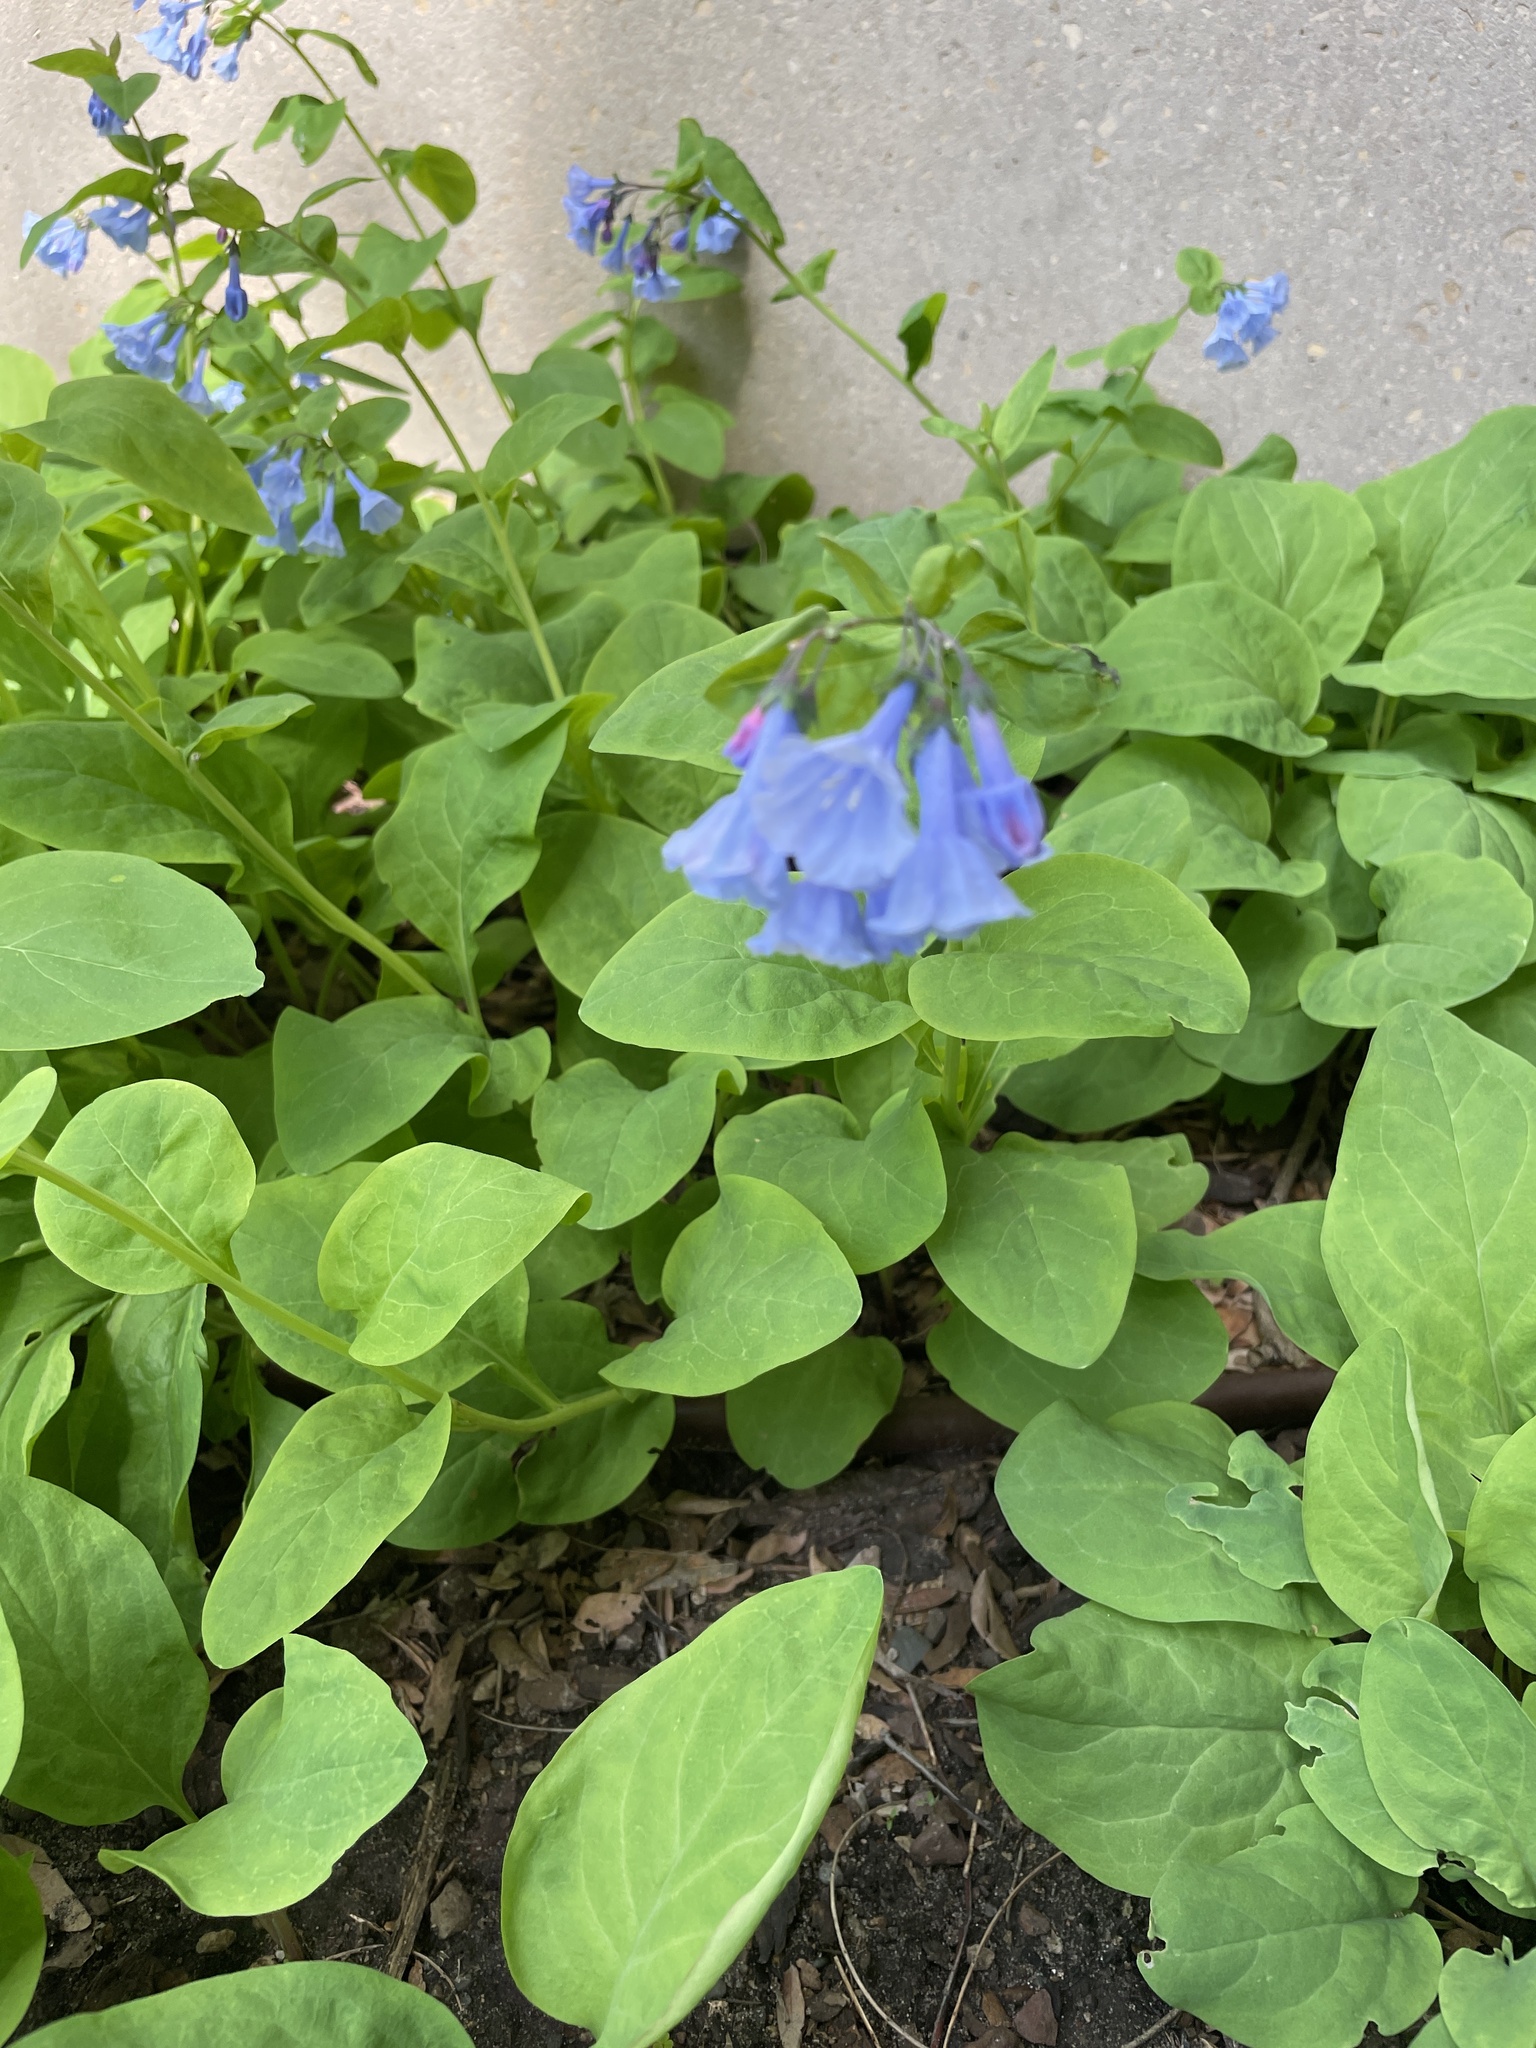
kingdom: Plantae
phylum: Tracheophyta
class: Magnoliopsida
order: Boraginales
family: Boraginaceae
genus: Mertensia
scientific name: Mertensia virginica
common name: Virginia bluebells
